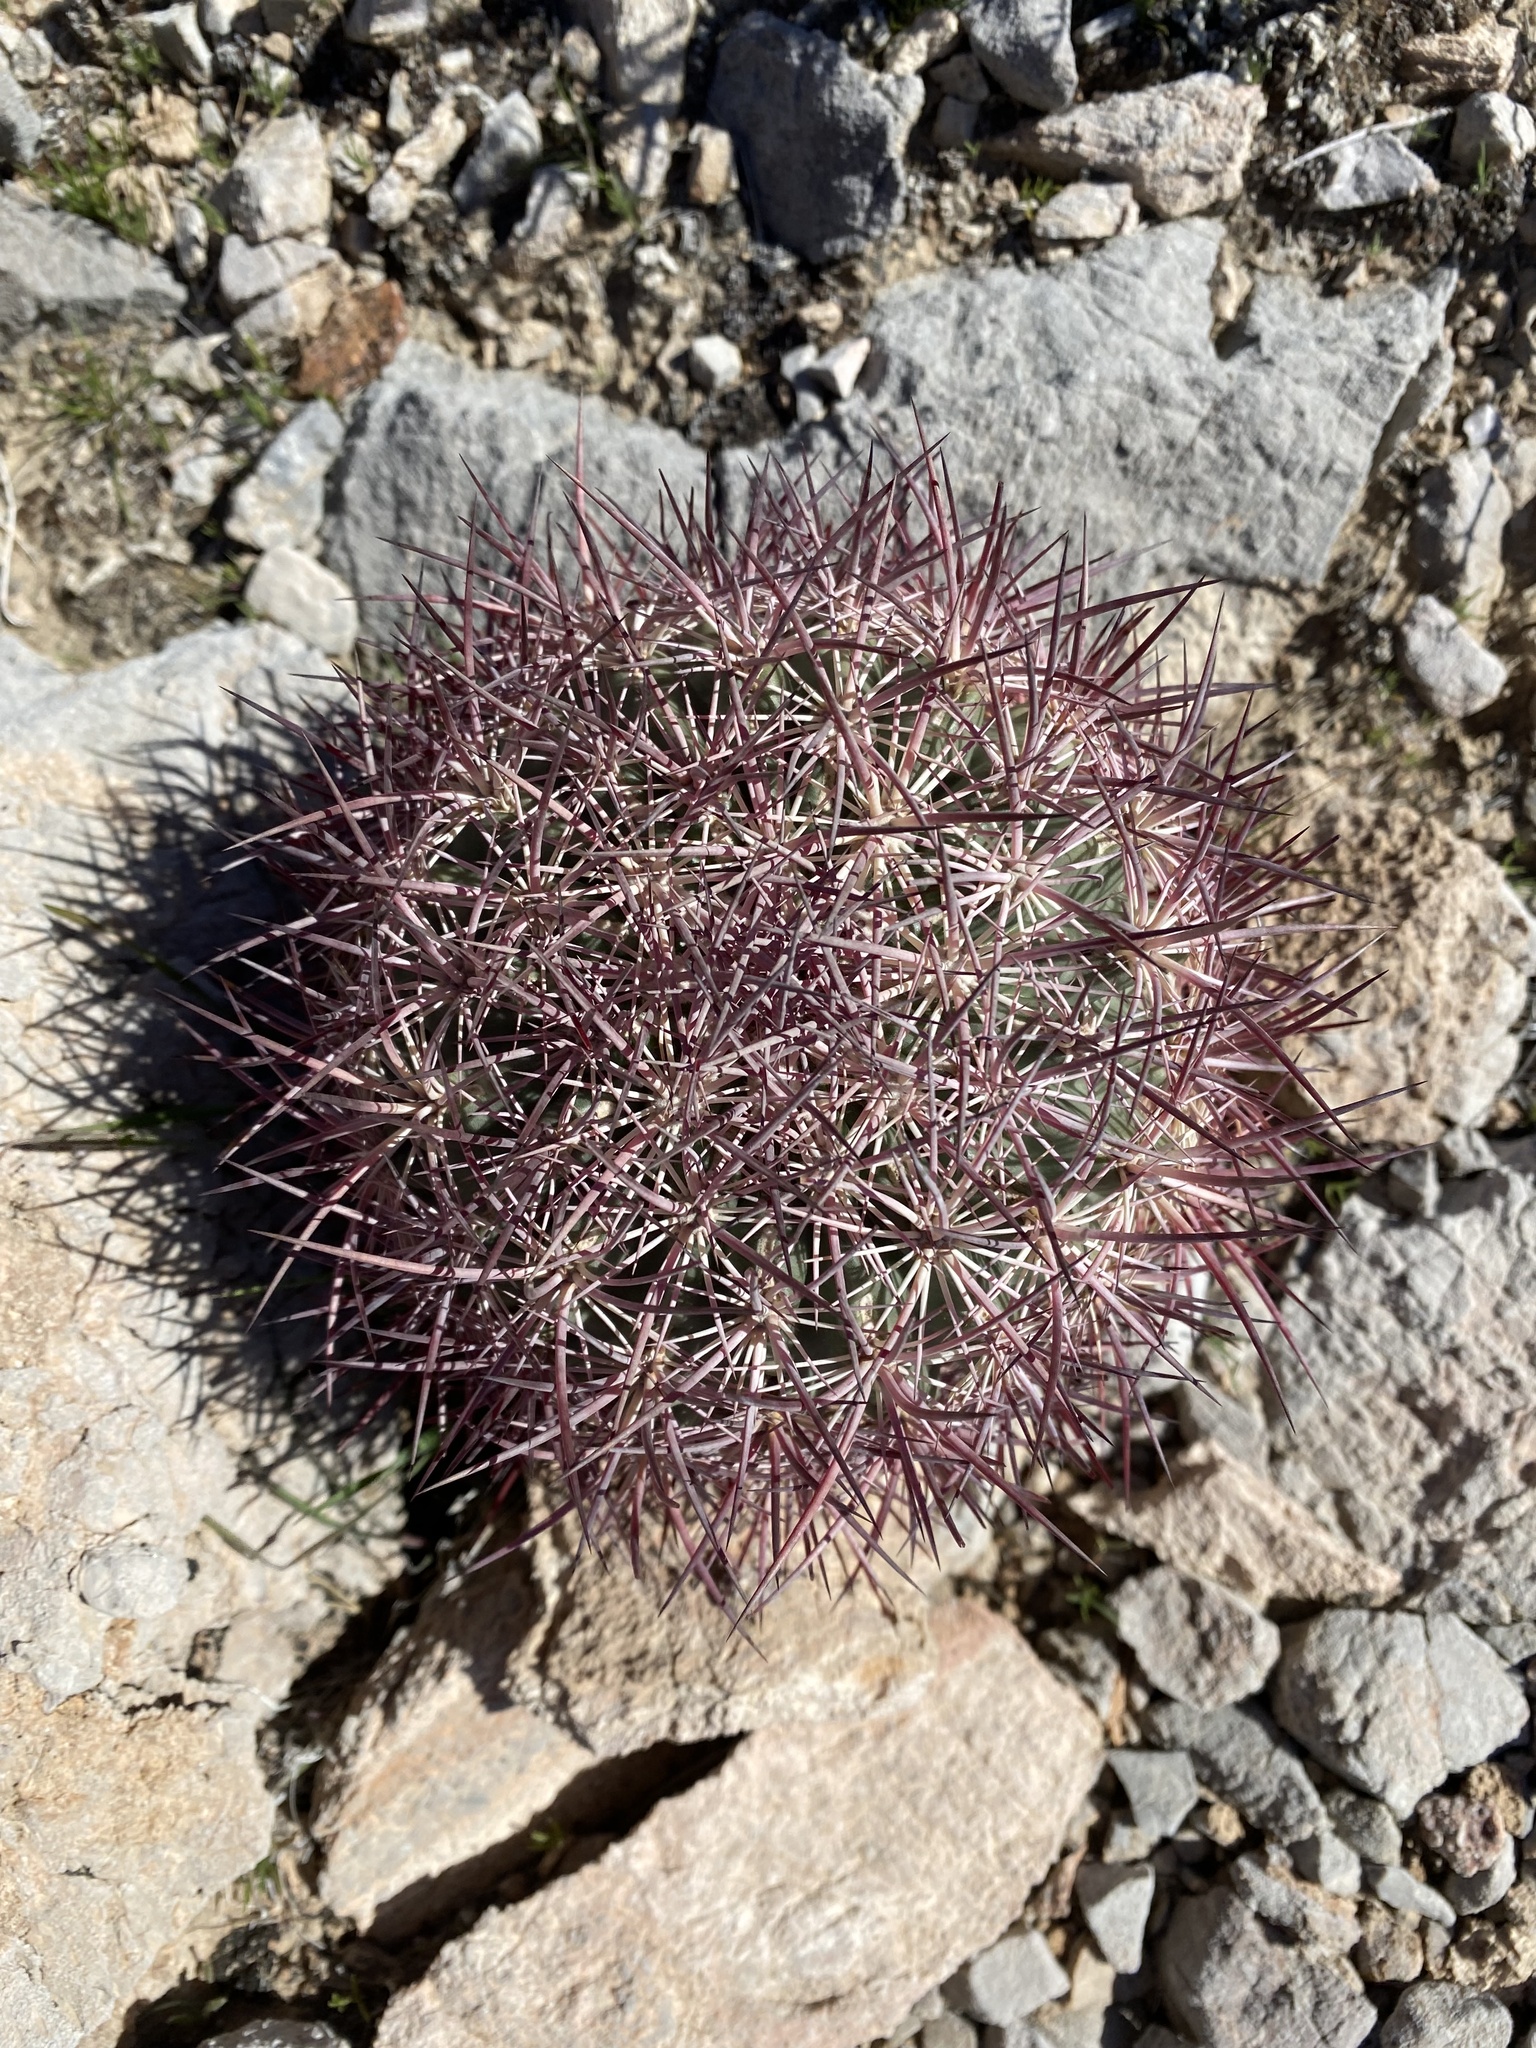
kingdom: Plantae
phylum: Tracheophyta
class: Magnoliopsida
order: Caryophyllales
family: Cactaceae
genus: Sclerocactus
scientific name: Sclerocactus johnsonii
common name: Eight-spine fishhook cactus
